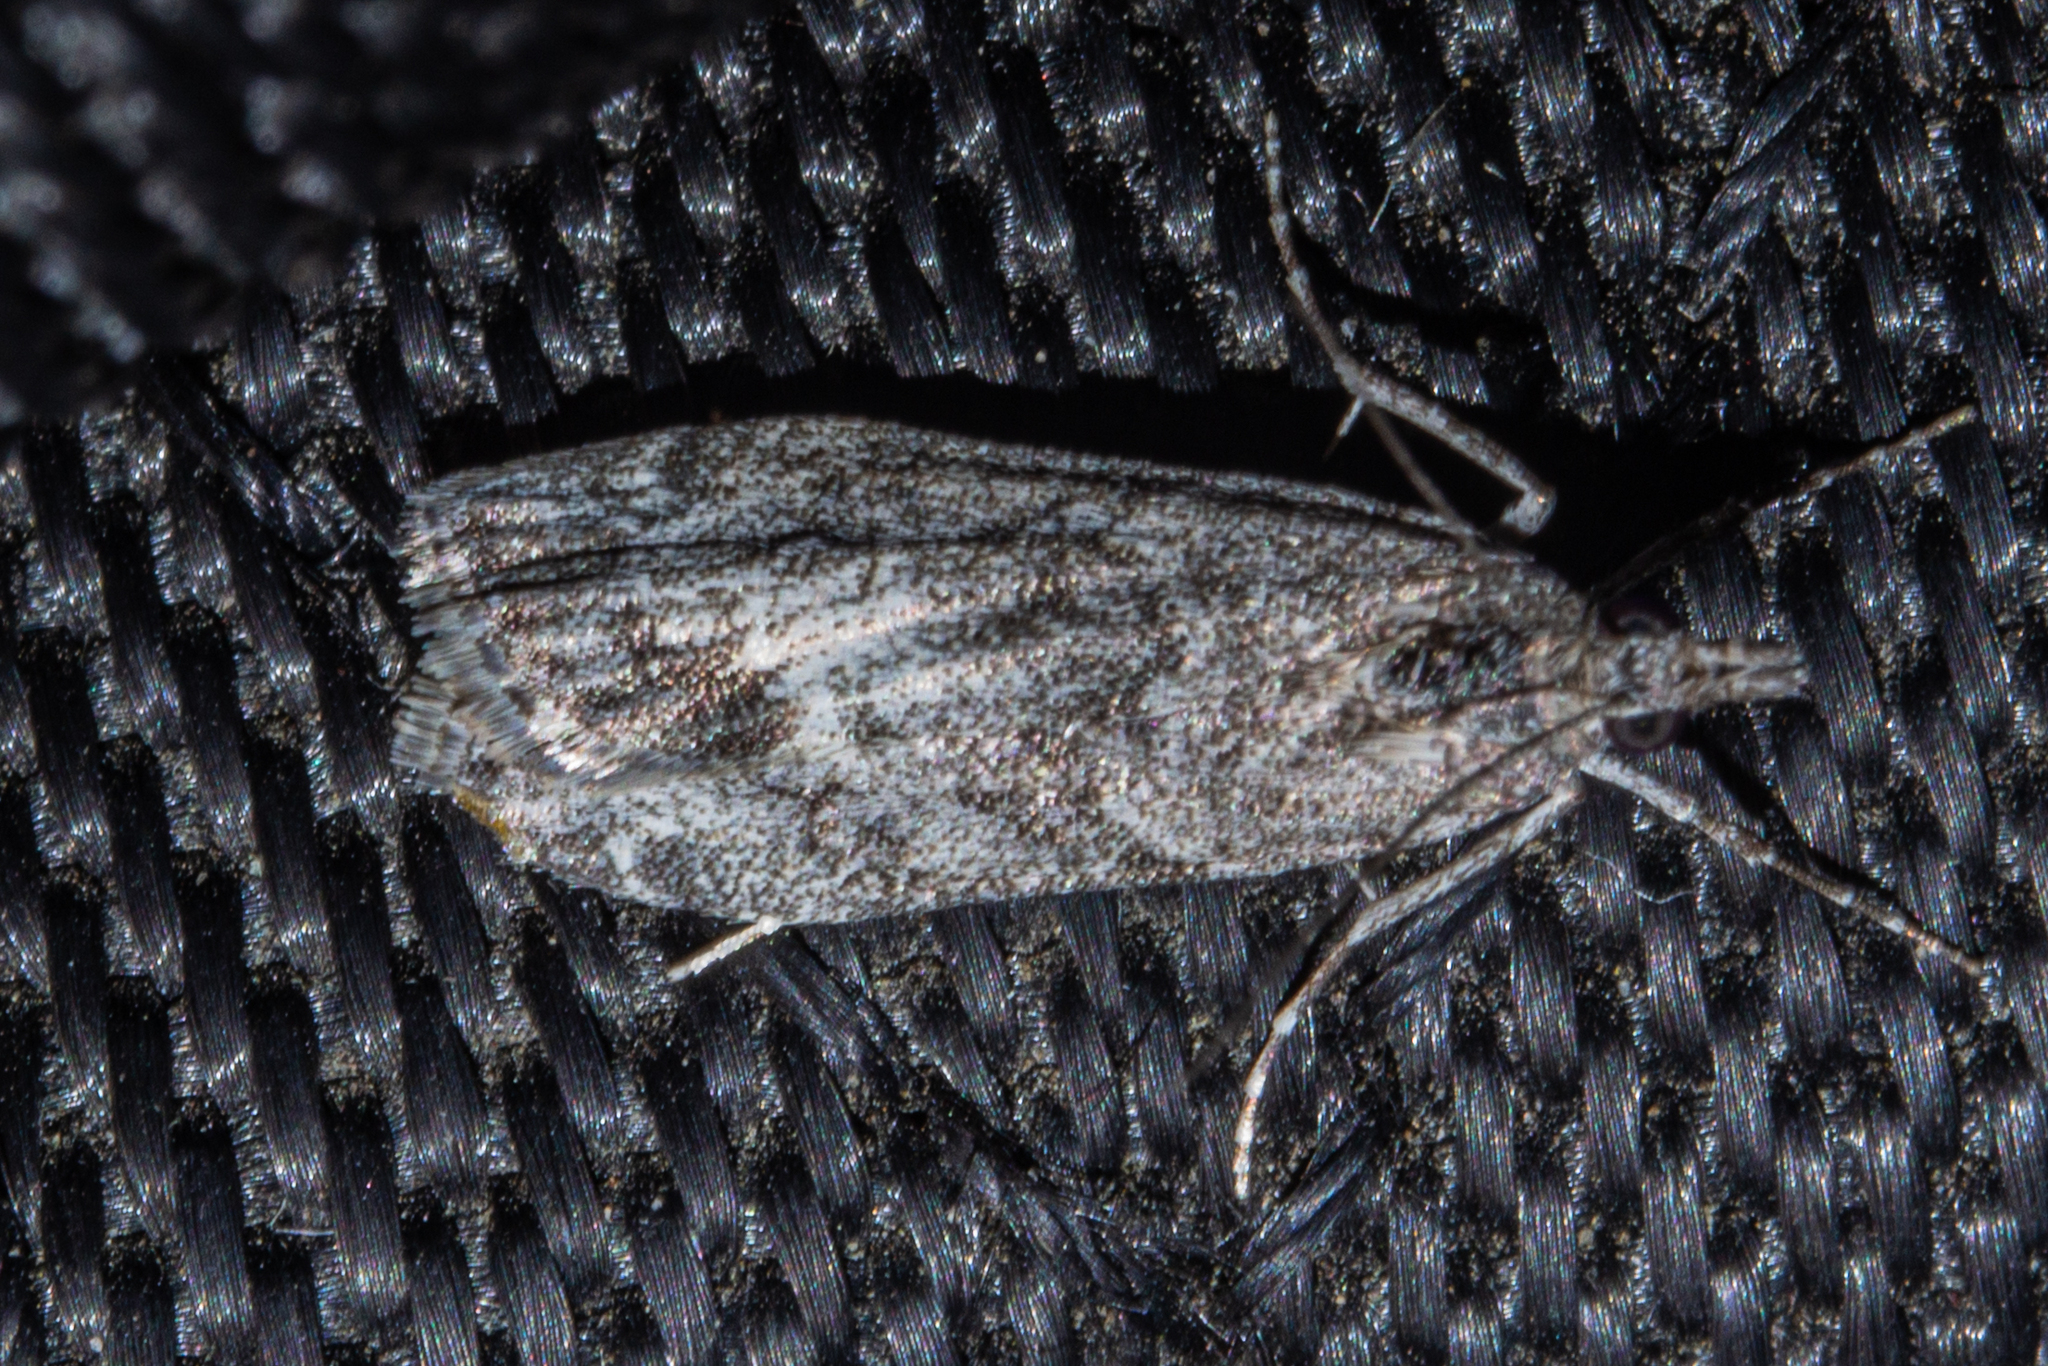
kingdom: Animalia
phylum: Arthropoda
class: Insecta
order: Lepidoptera
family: Crambidae
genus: Eudonia
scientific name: Eudonia rakaiensis
